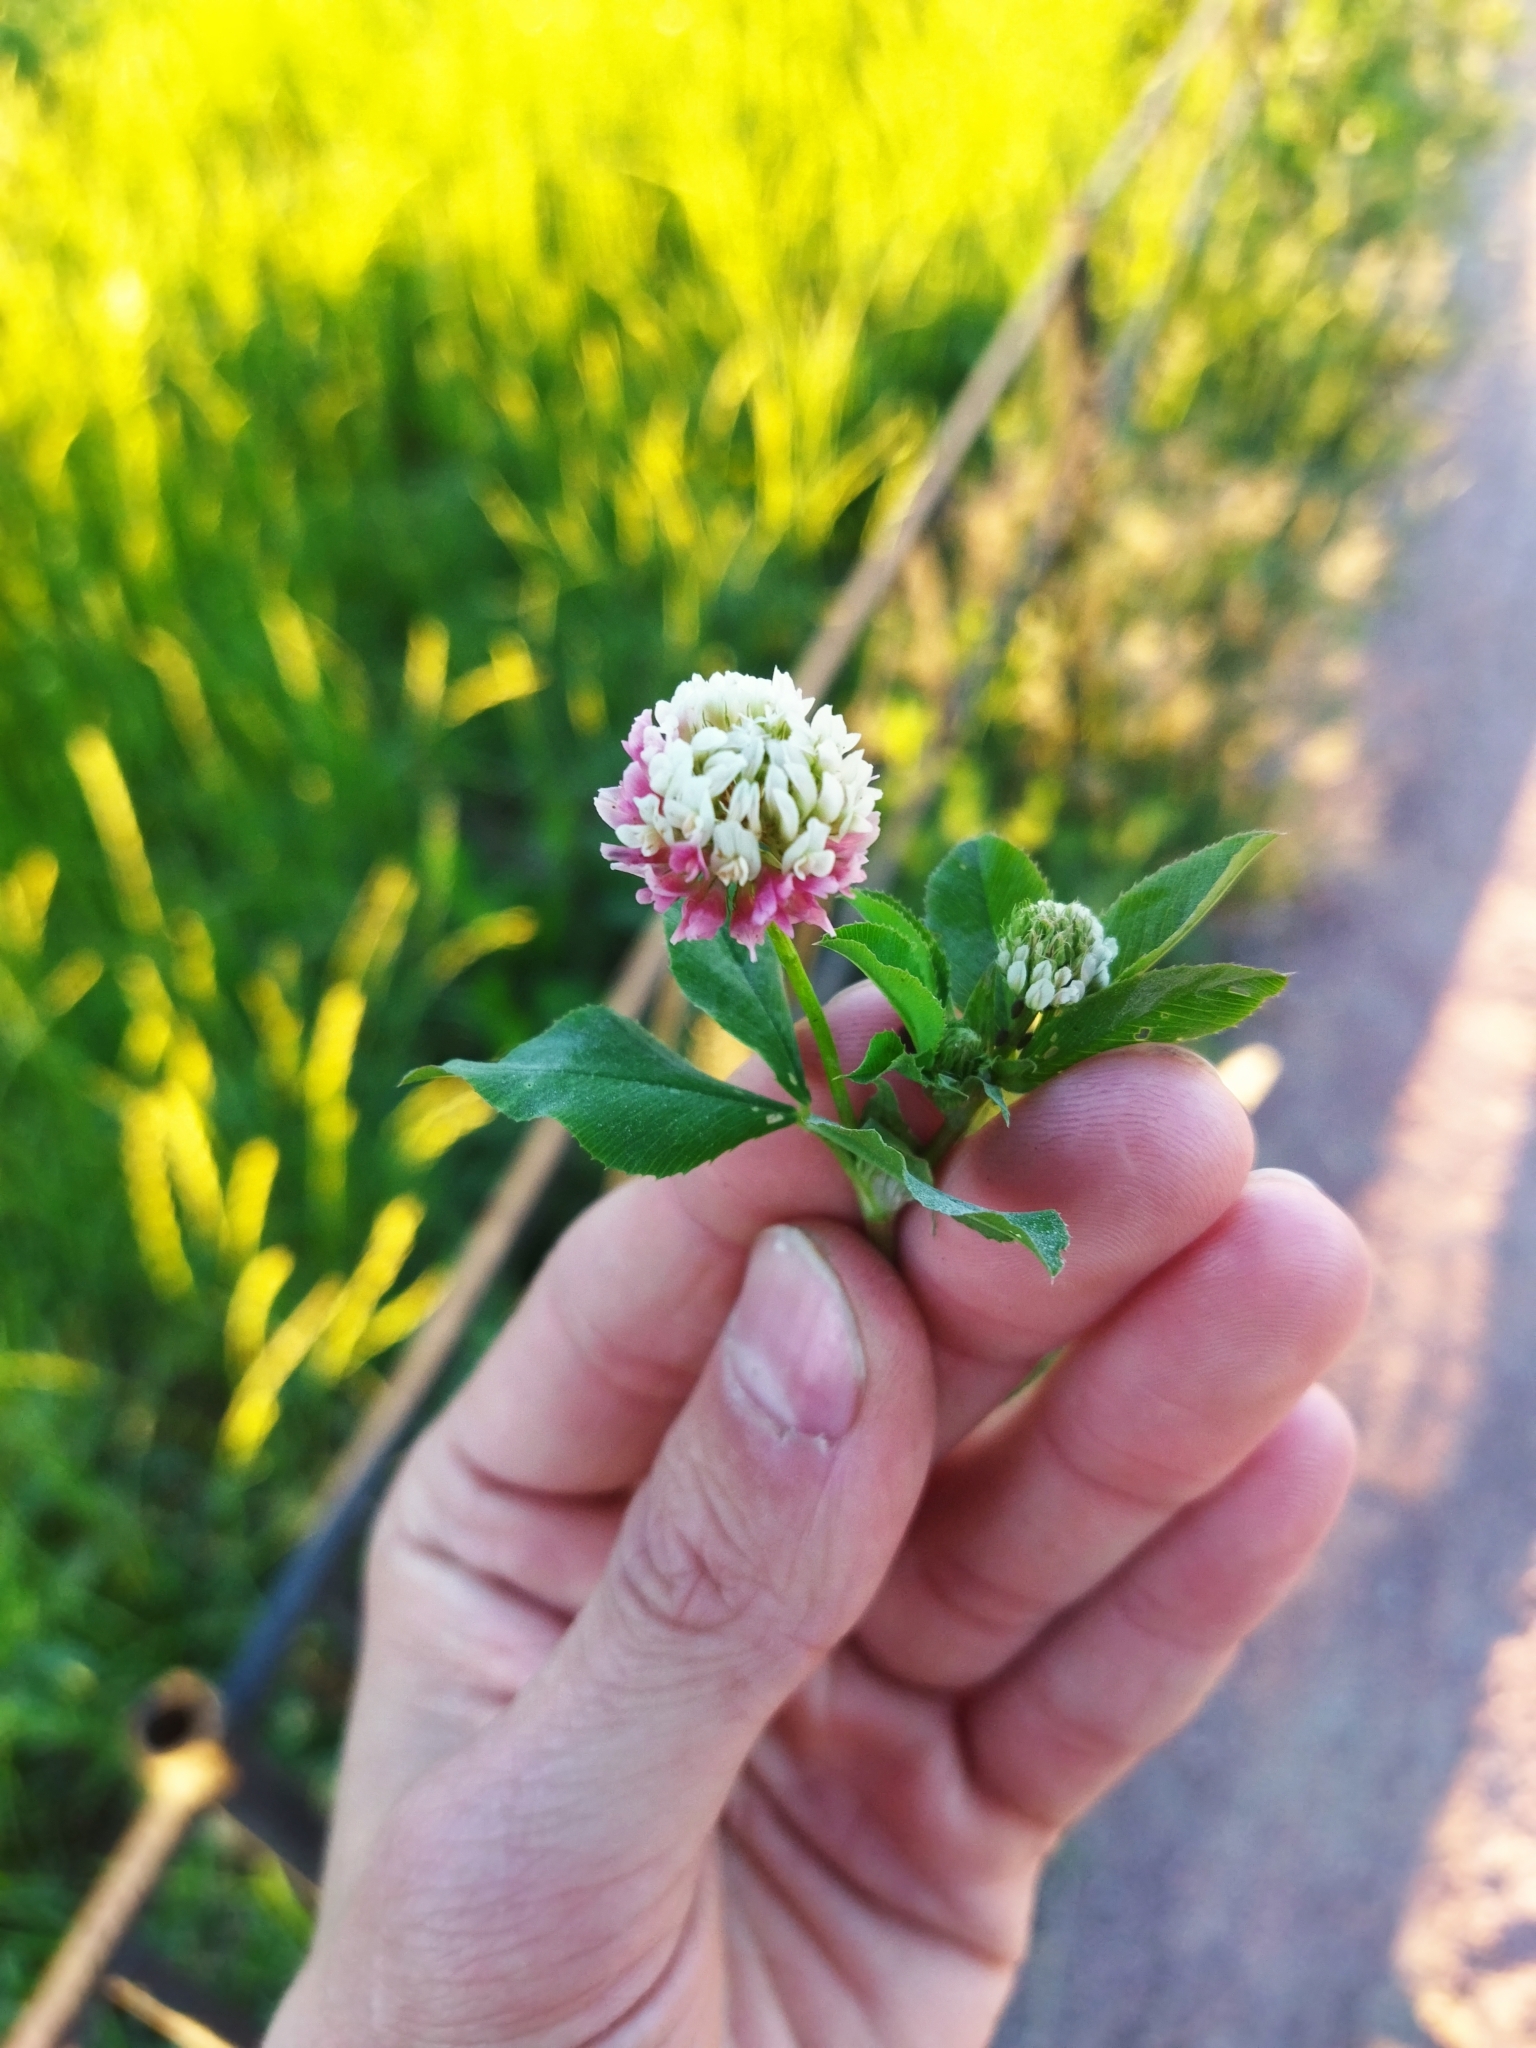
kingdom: Plantae
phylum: Tracheophyta
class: Magnoliopsida
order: Fabales
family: Fabaceae
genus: Trifolium
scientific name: Trifolium hybridum
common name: Alsike clover
